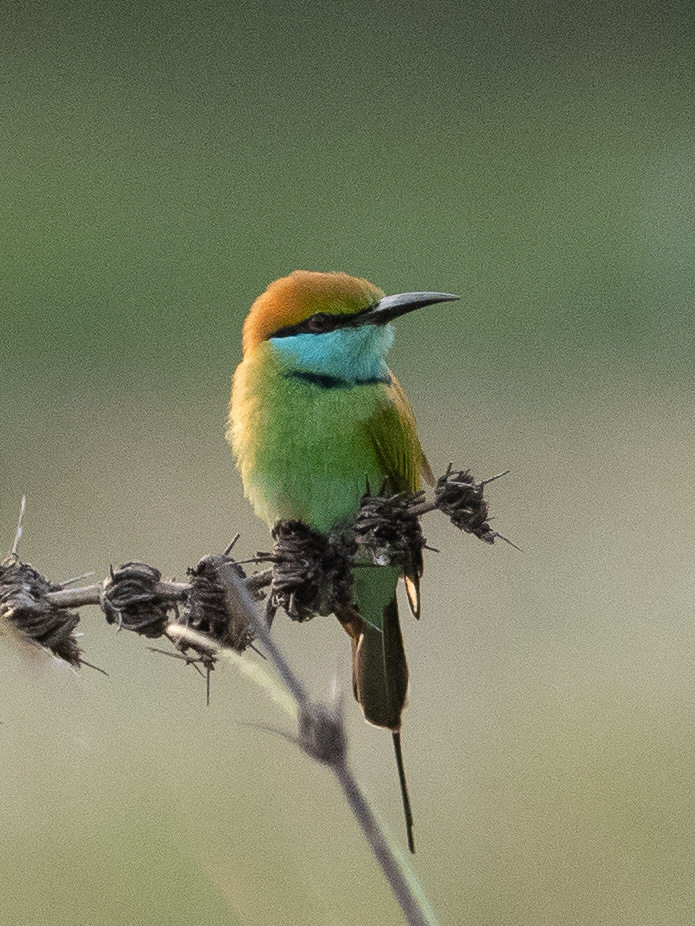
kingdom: Animalia
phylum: Chordata
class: Aves
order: Coraciiformes
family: Meropidae
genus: Merops
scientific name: Merops orientalis
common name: Green bee-eater
